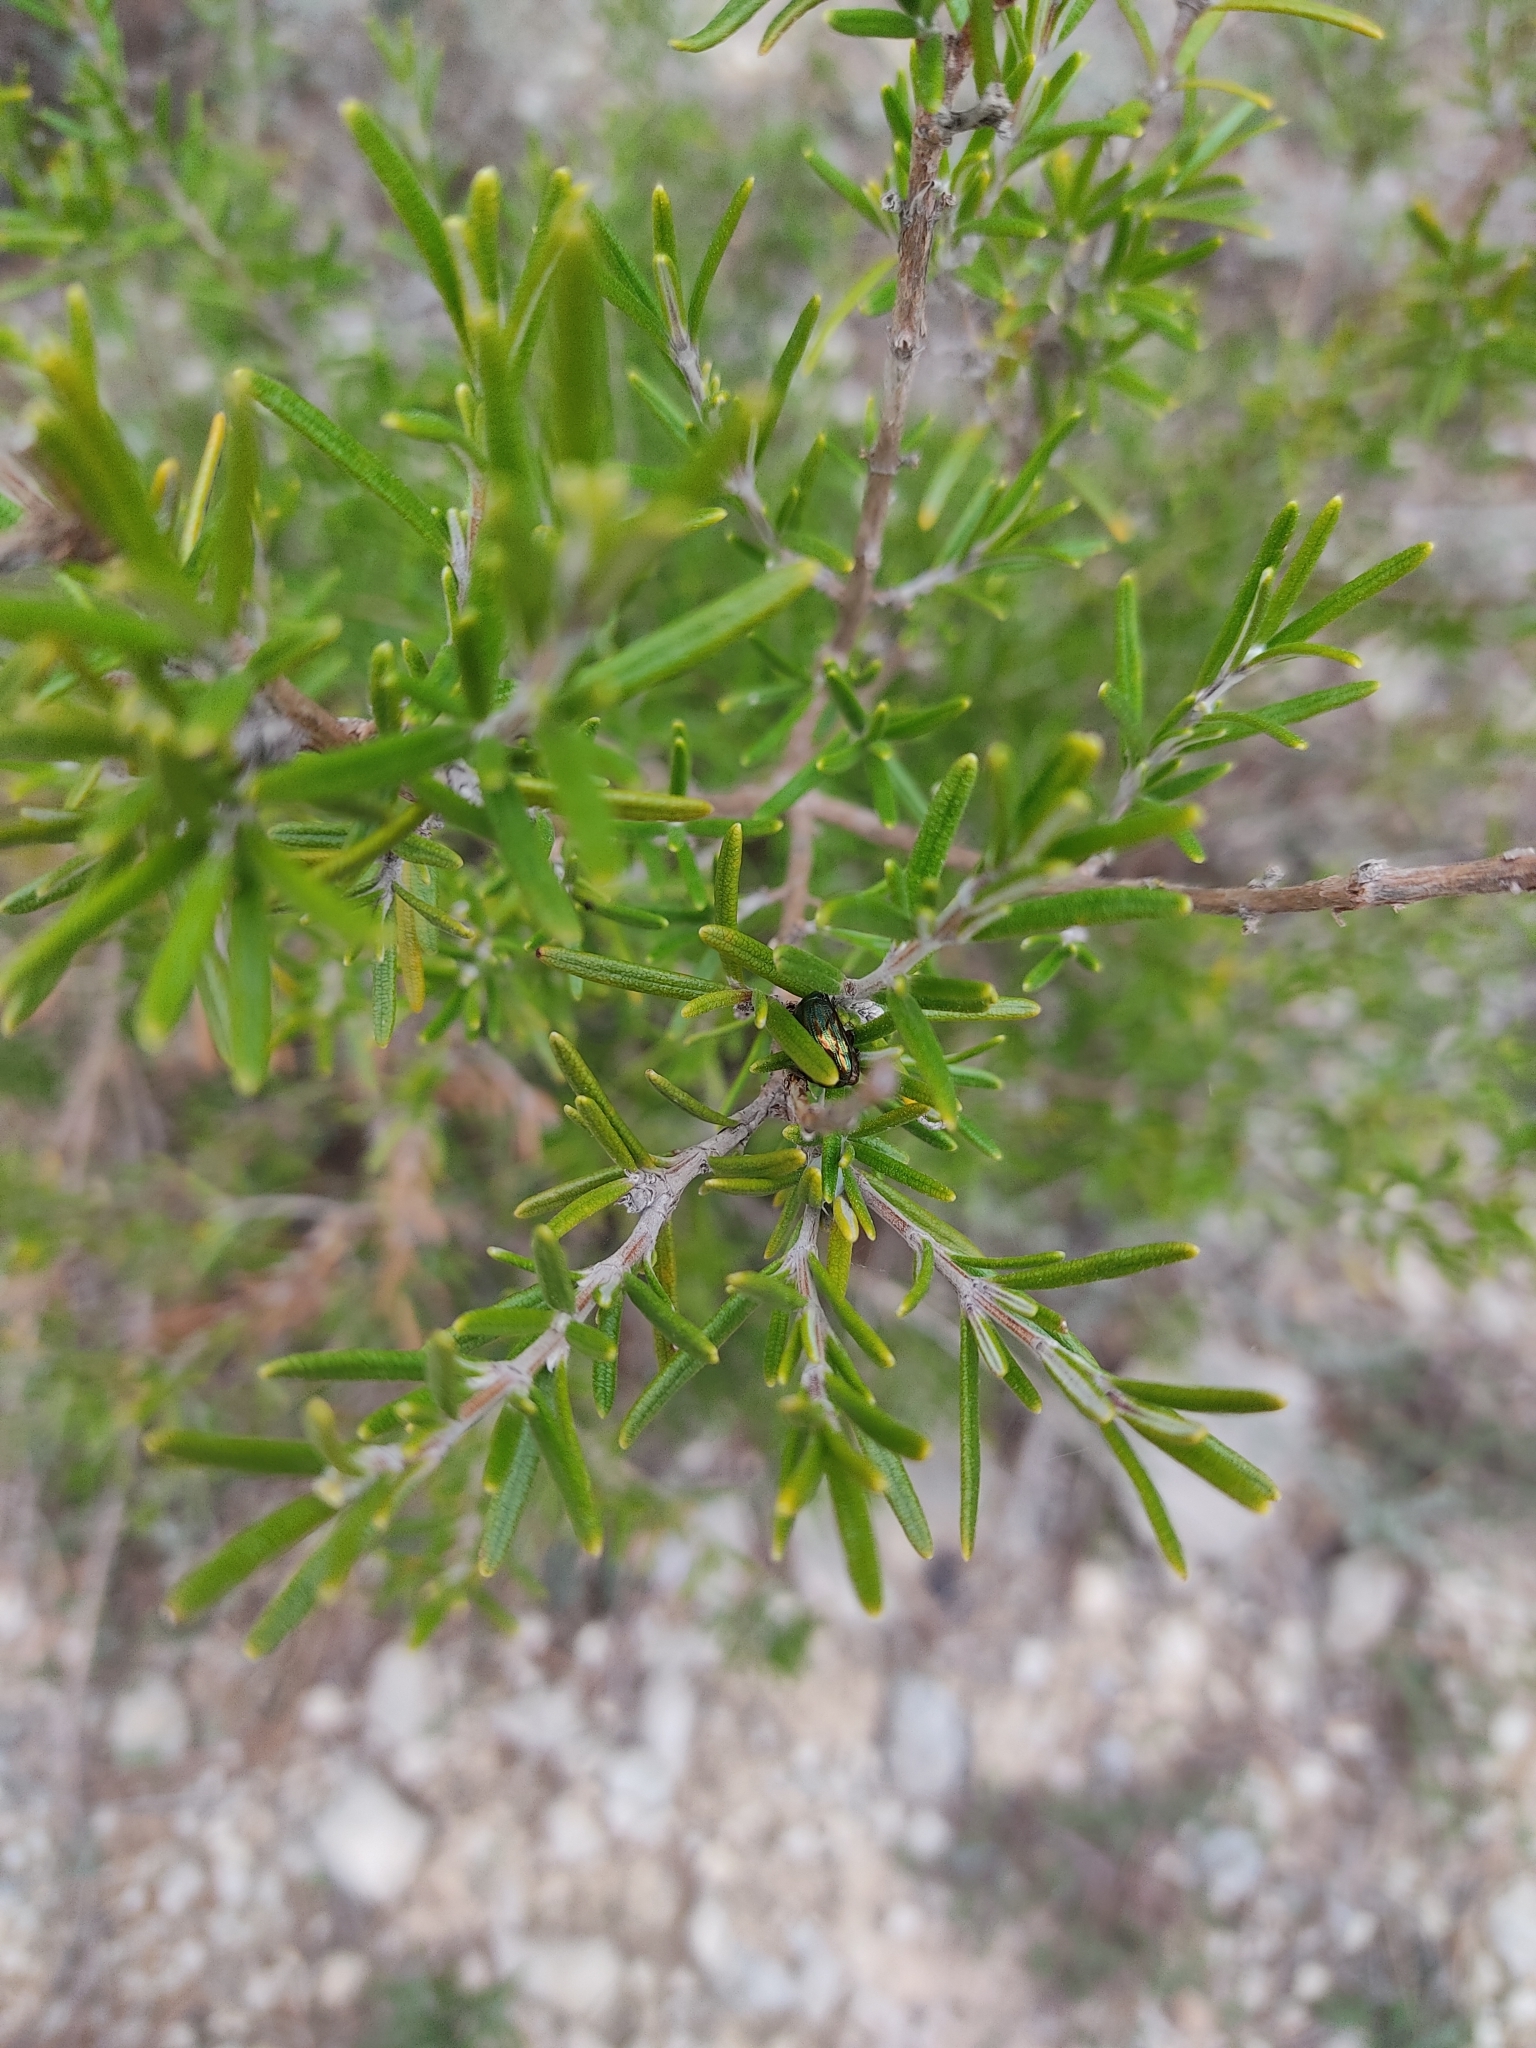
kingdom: Animalia
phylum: Arthropoda
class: Insecta
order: Coleoptera
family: Chrysomelidae
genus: Chrysolina
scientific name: Chrysolina americana
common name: Rosemary beetle
